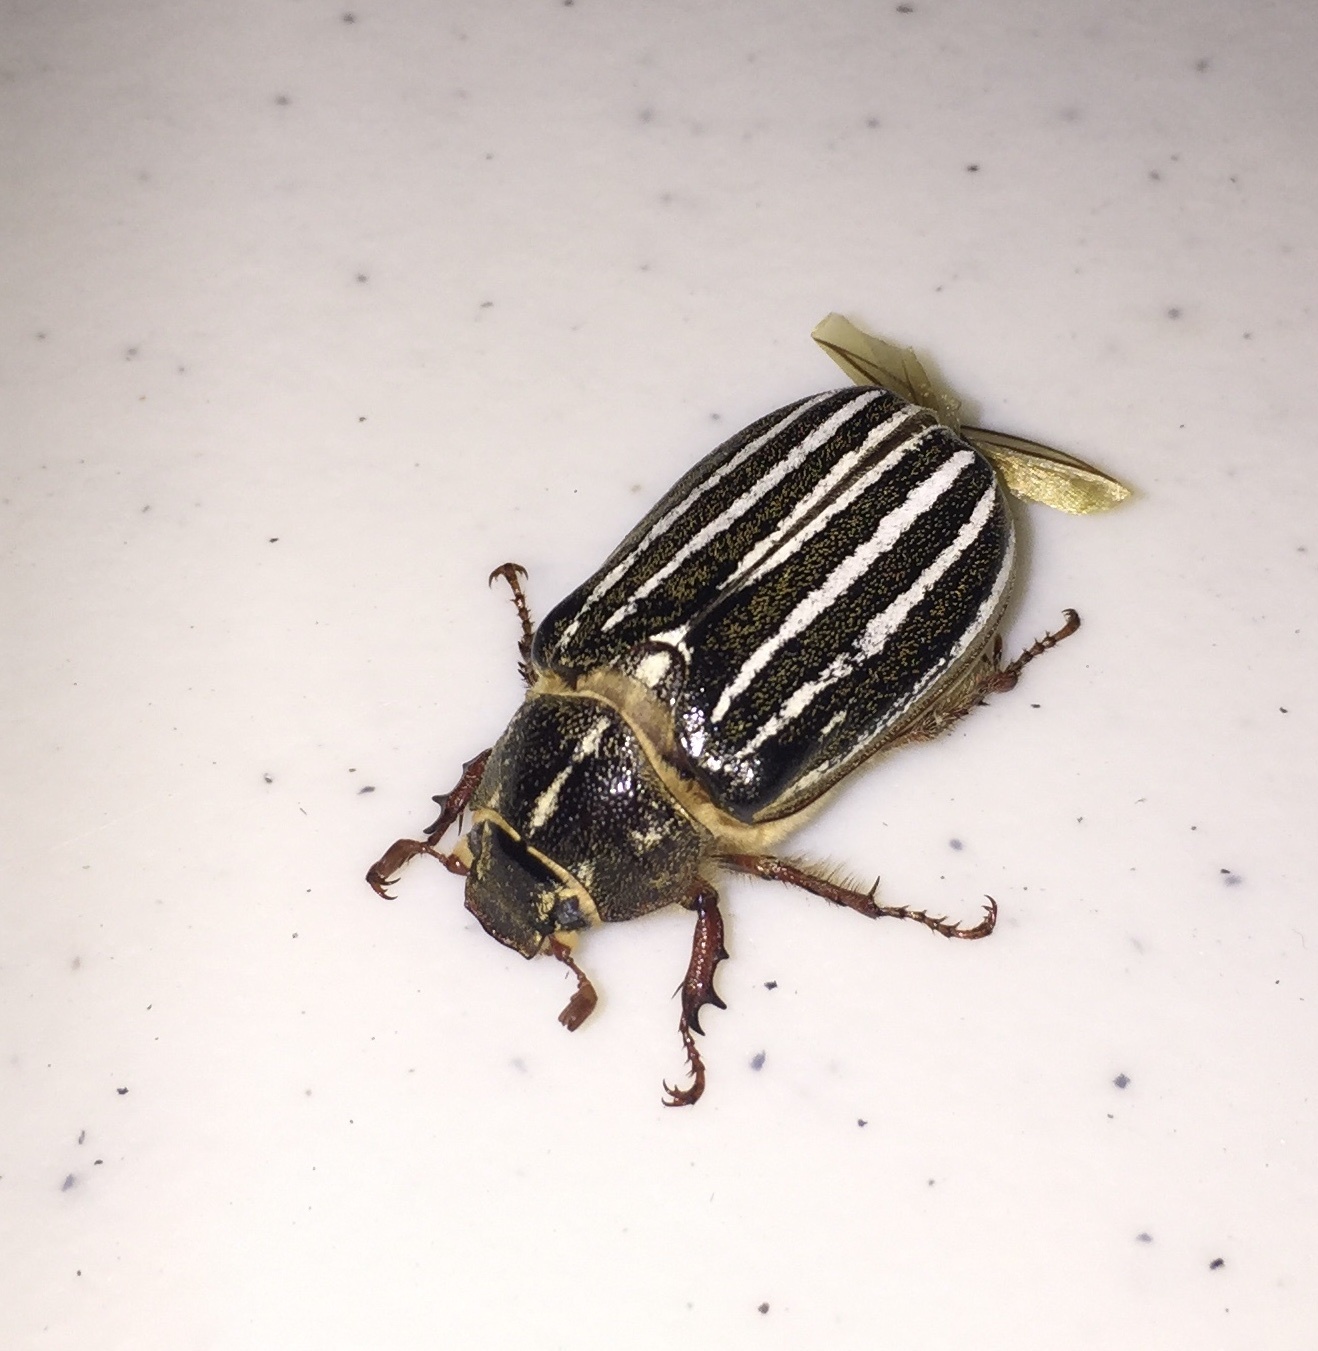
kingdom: Animalia
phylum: Arthropoda
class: Insecta
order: Coleoptera
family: Scarabaeidae
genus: Polyphylla
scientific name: Polyphylla crinita
